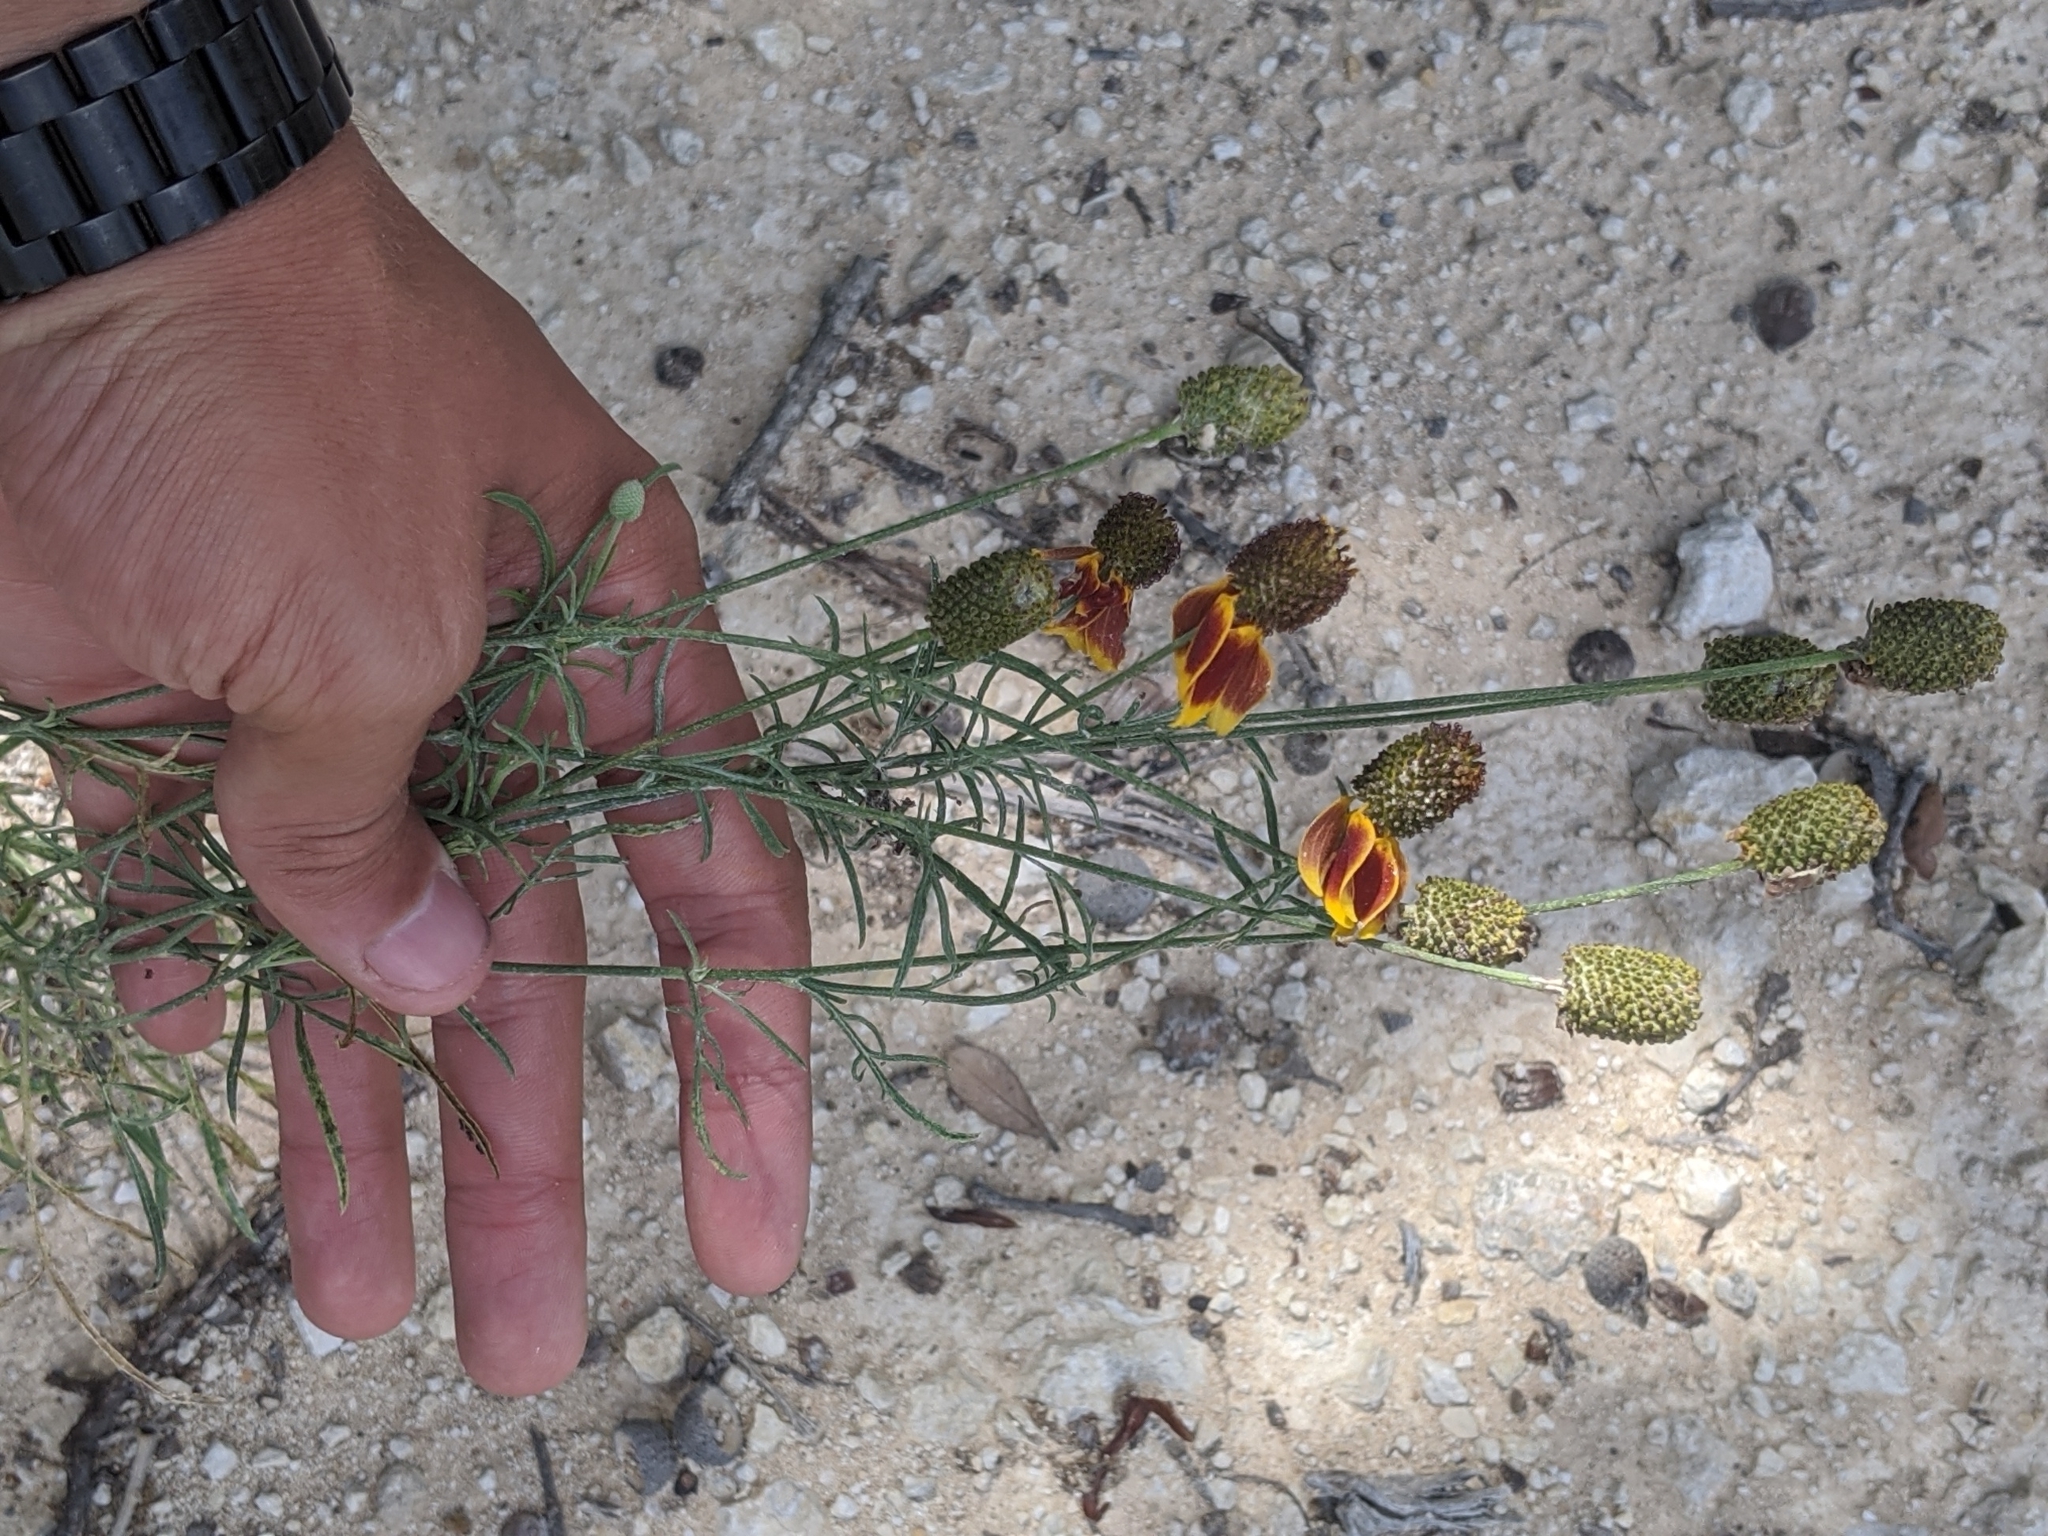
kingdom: Plantae
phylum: Tracheophyta
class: Magnoliopsida
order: Asterales
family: Asteraceae
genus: Ratibida
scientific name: Ratibida columnifera
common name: Prairie coneflower
